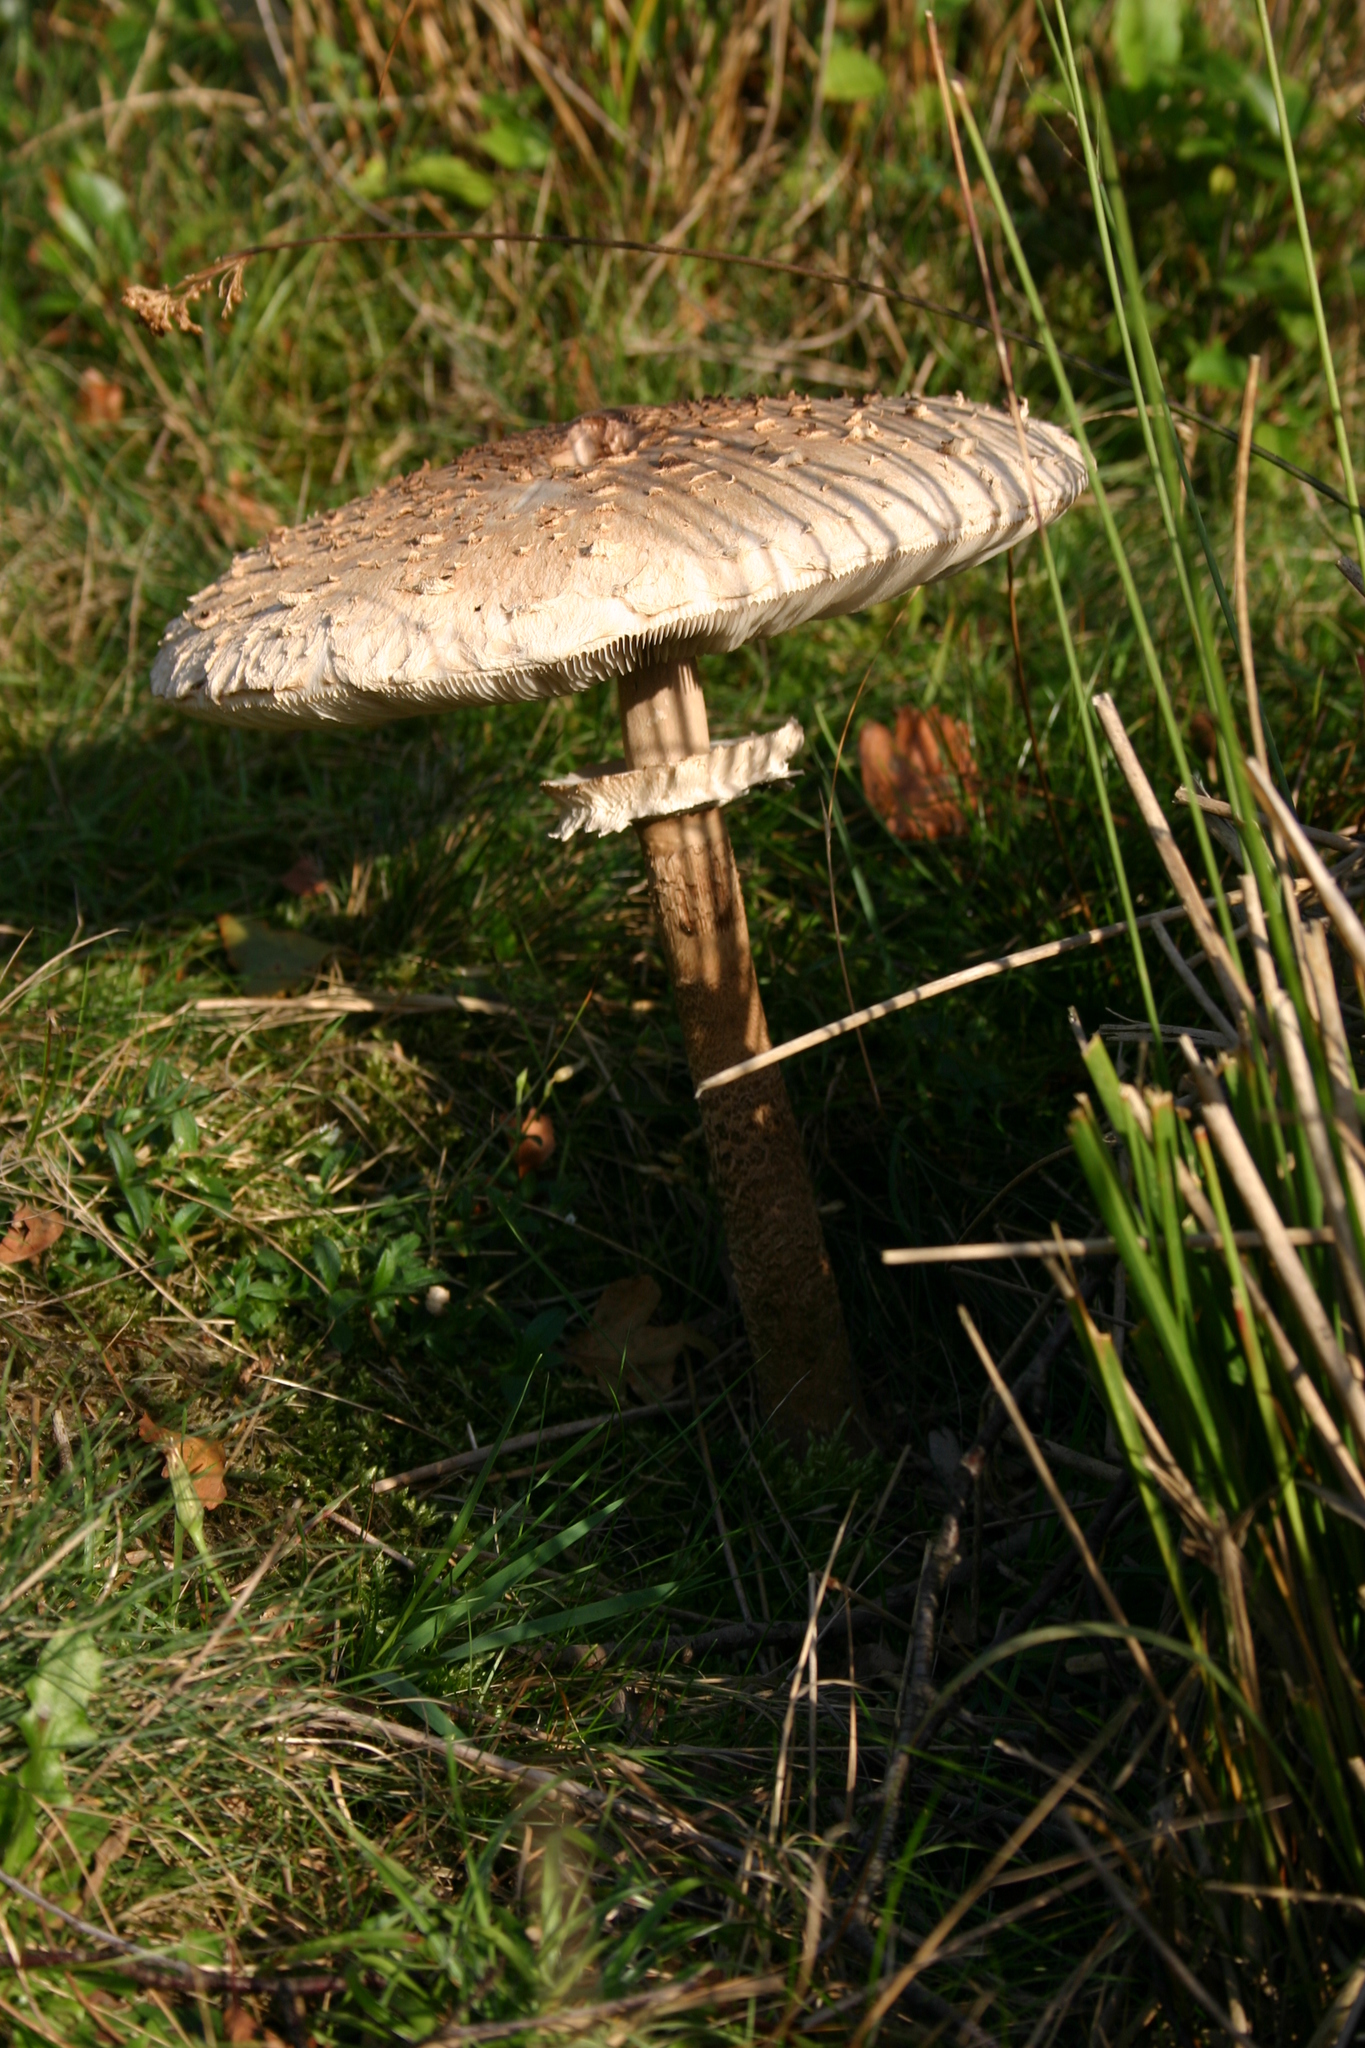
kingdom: Fungi
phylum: Basidiomycota
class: Agaricomycetes
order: Agaricales
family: Agaricaceae
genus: Macrolepiota
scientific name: Macrolepiota procera
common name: Parasol
